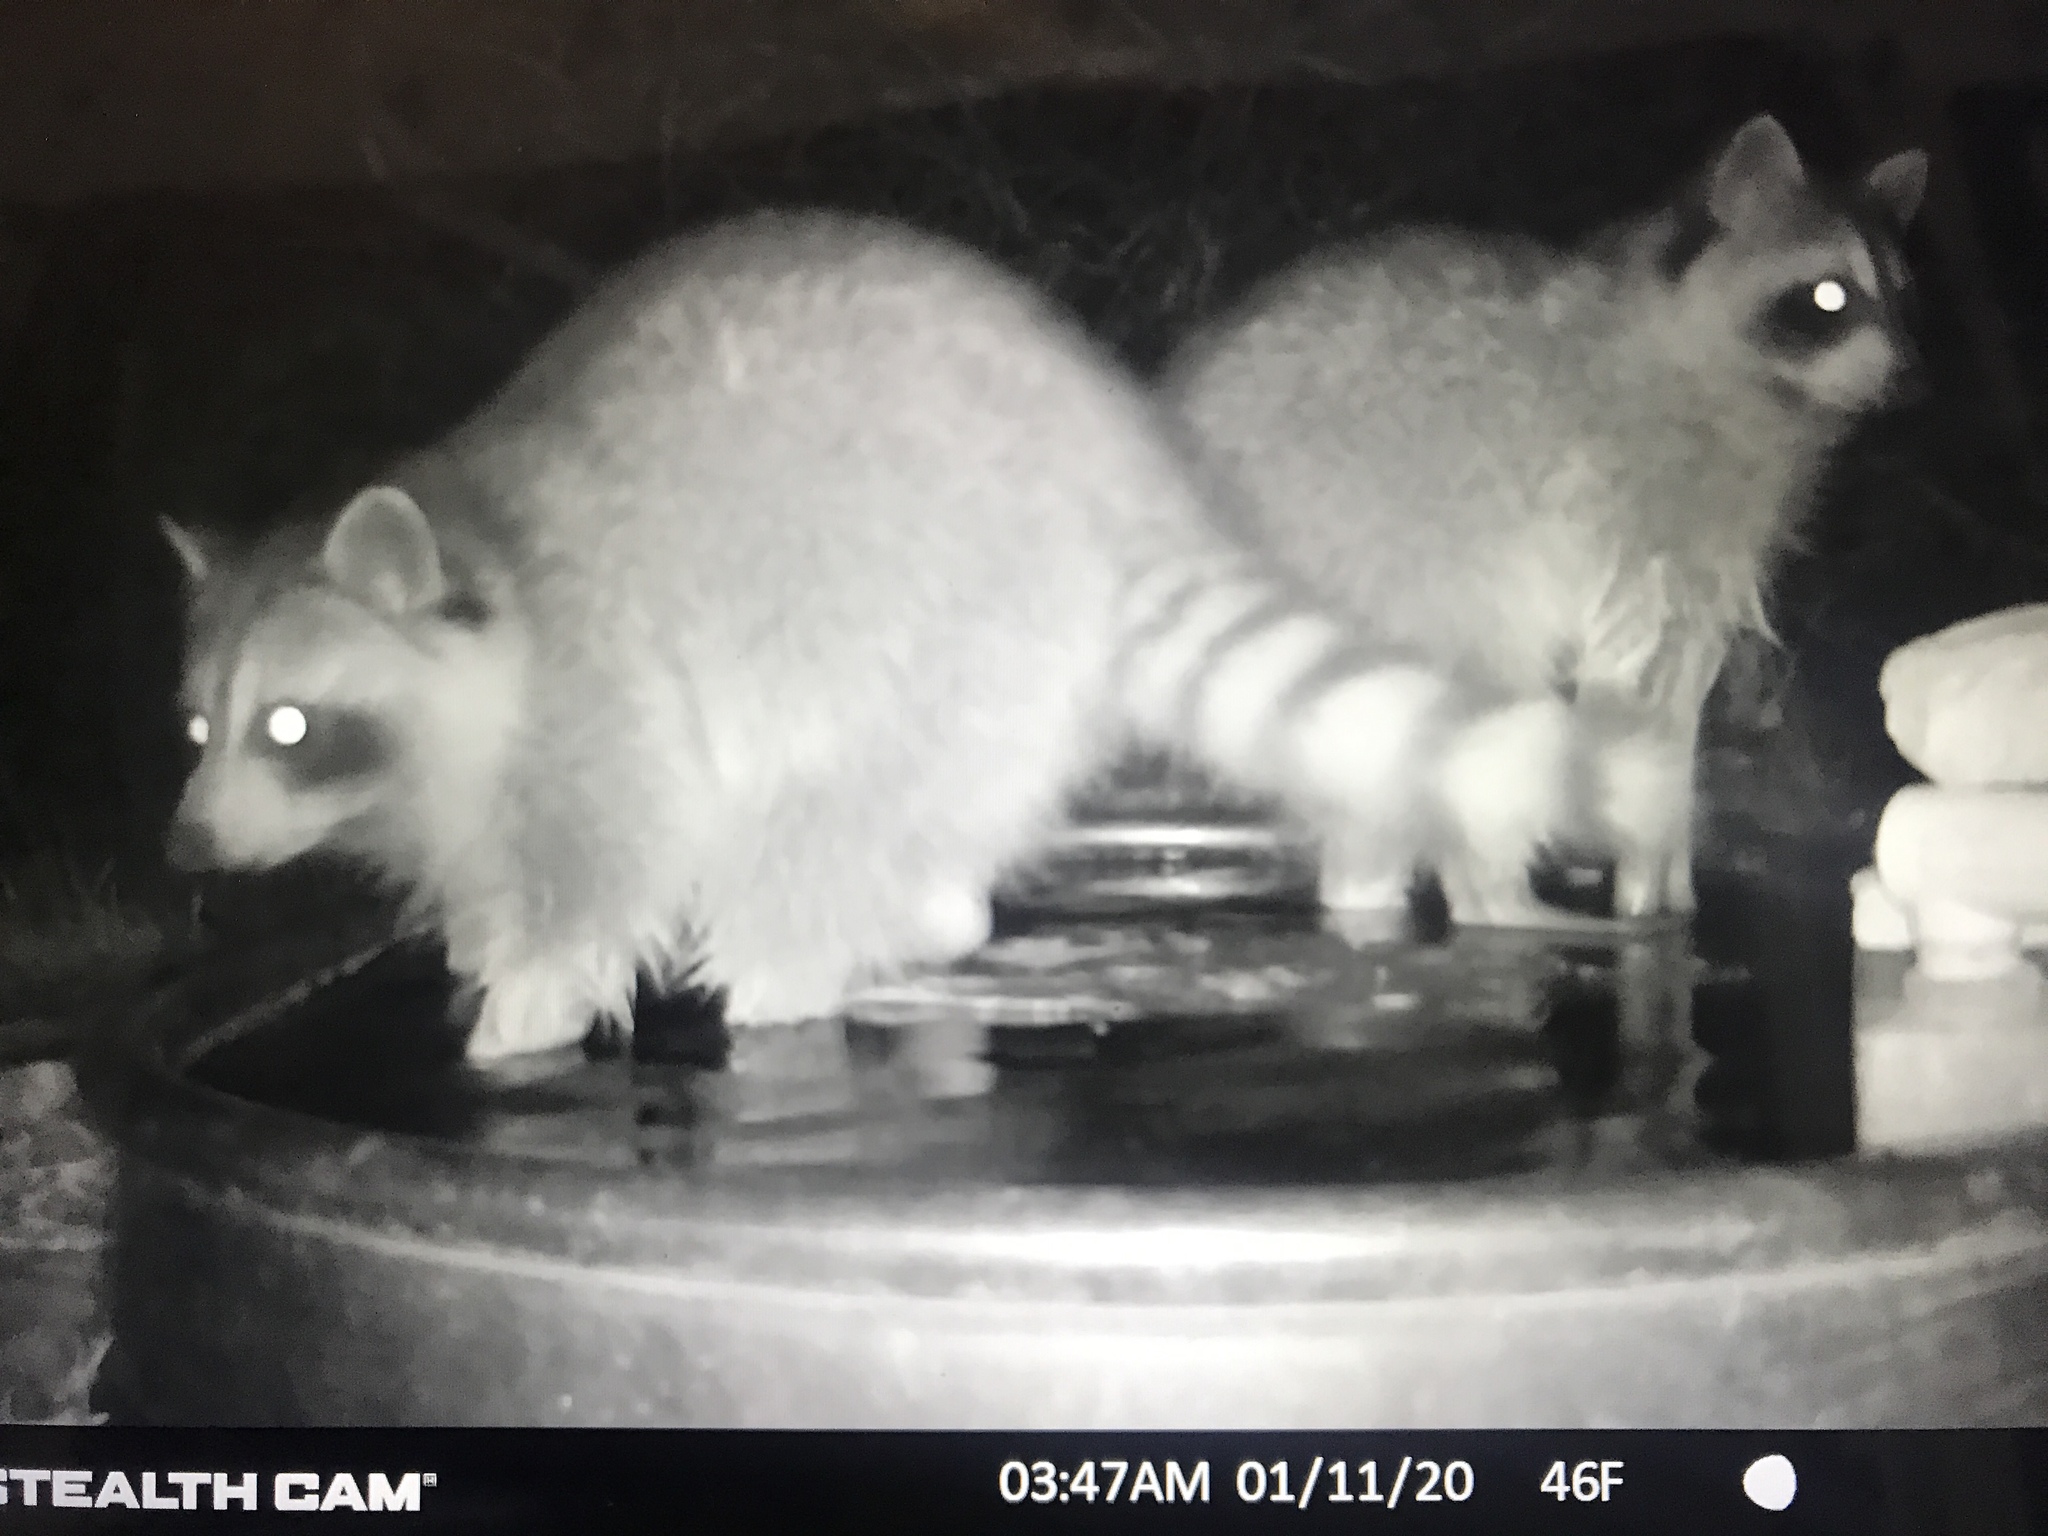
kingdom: Animalia
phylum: Chordata
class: Mammalia
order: Carnivora
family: Procyonidae
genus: Procyon
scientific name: Procyon lotor
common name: Raccoon
